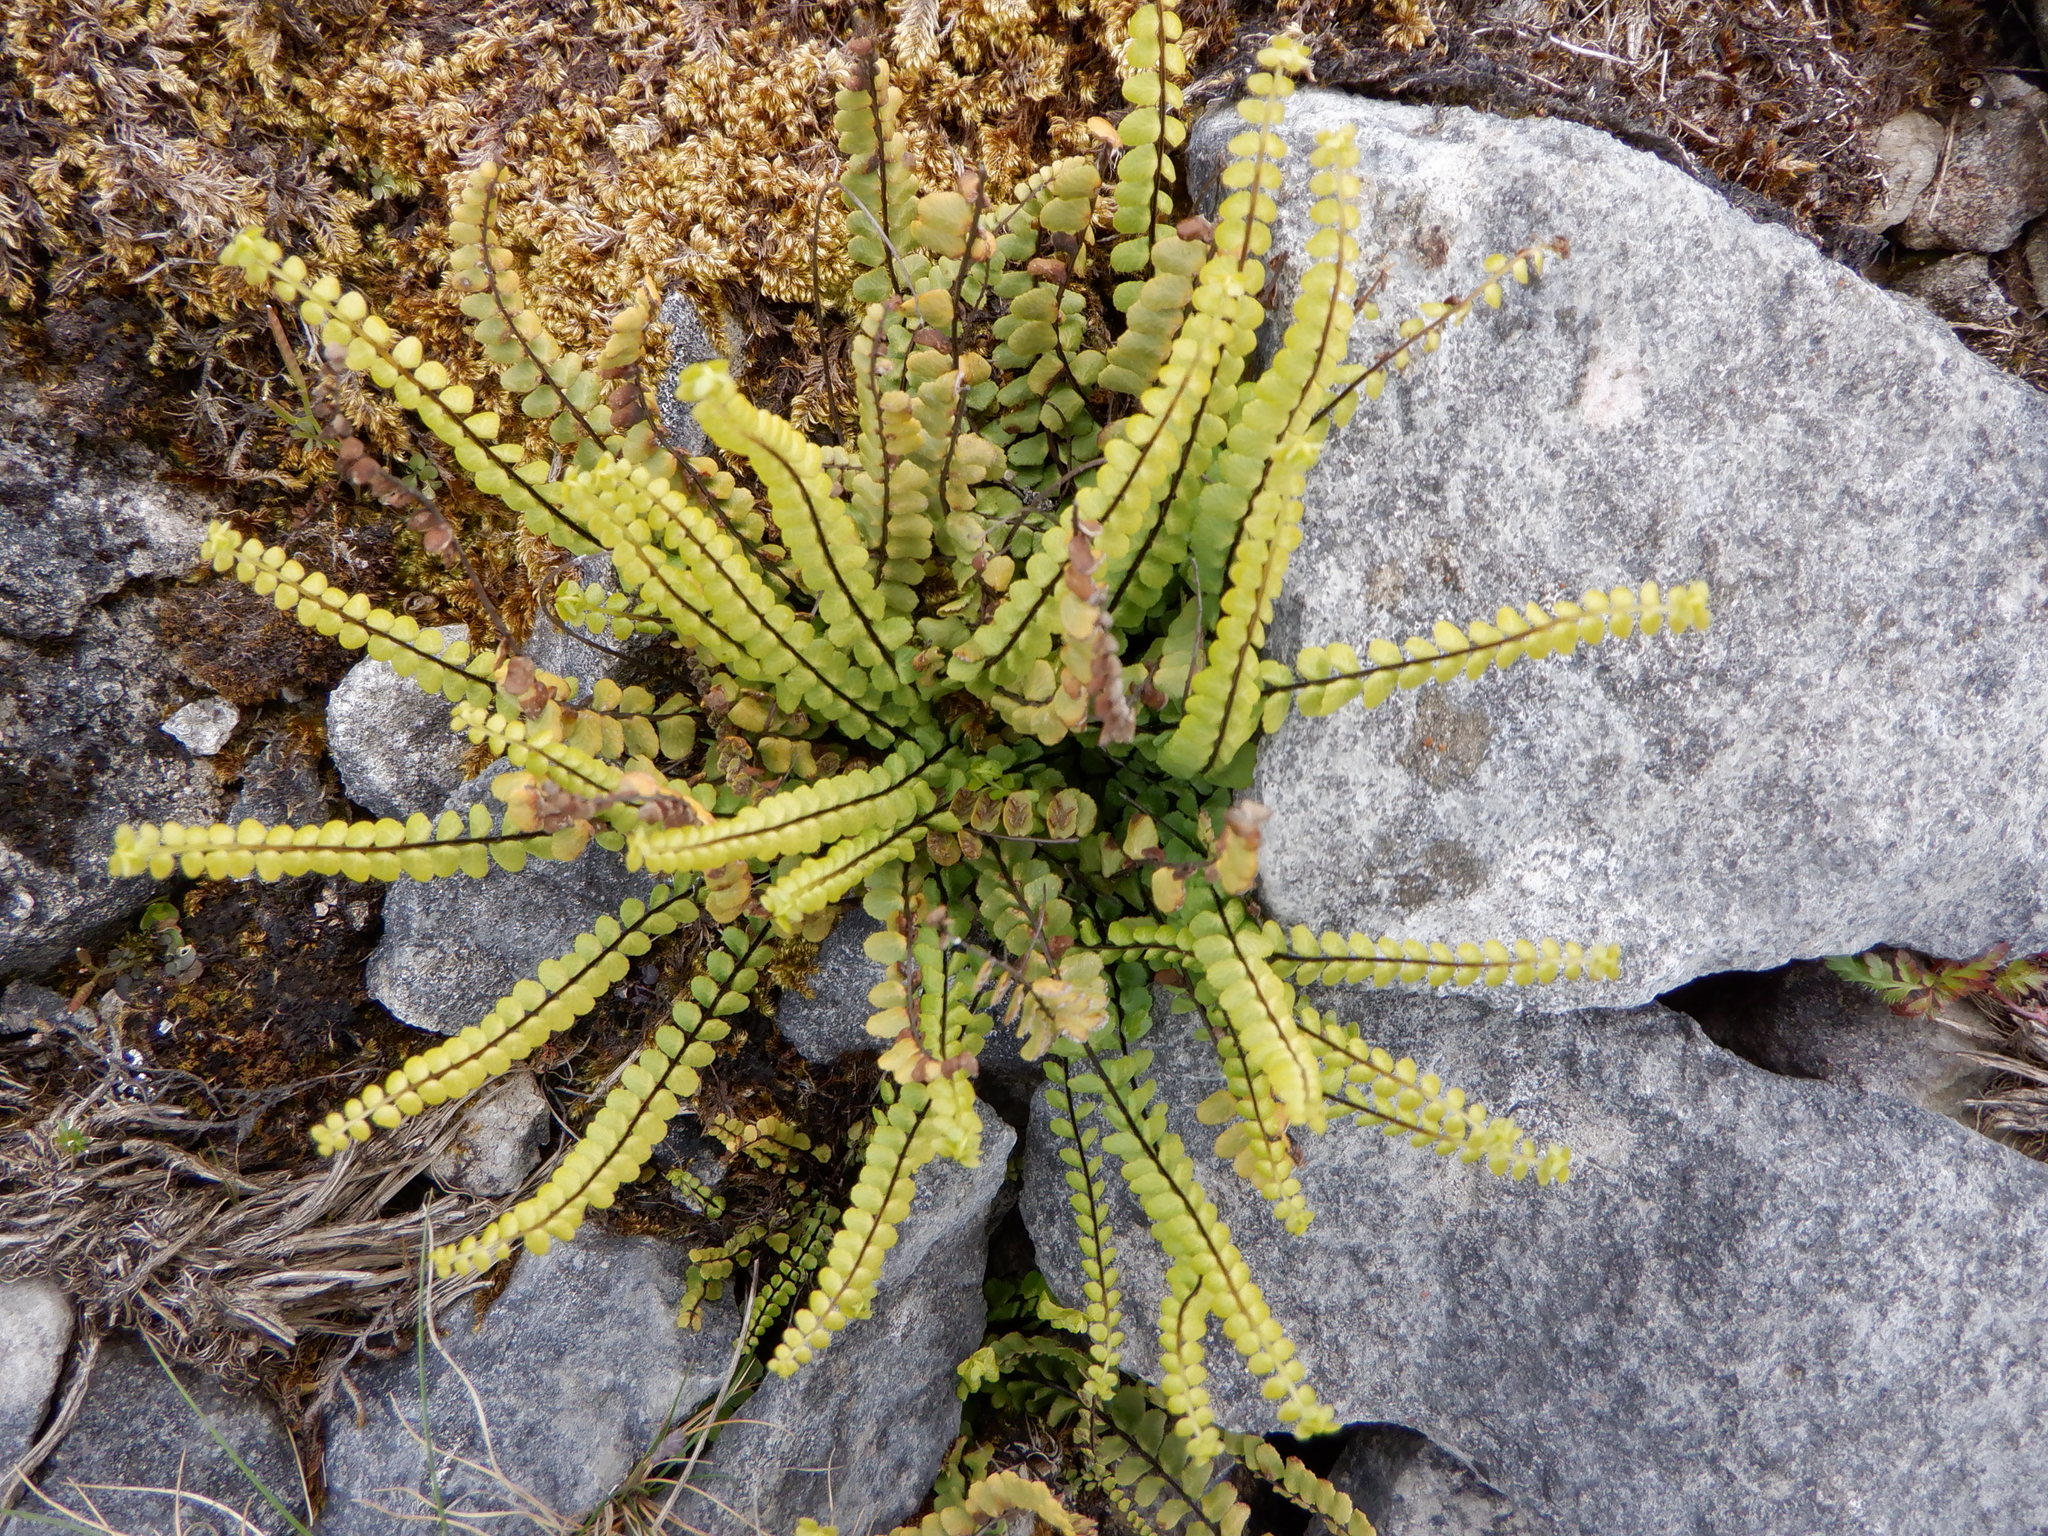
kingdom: Plantae
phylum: Tracheophyta
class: Polypodiopsida
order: Polypodiales
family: Aspleniaceae
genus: Asplenium
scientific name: Asplenium trichomanes
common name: Maidenhair spleenwort
